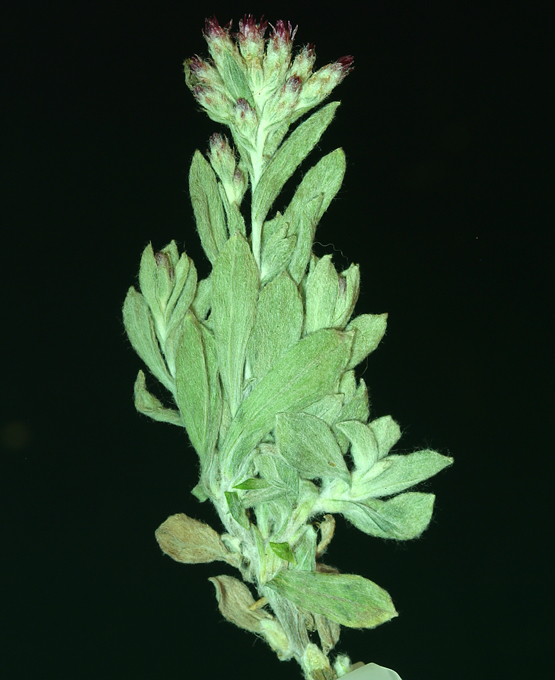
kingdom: Plantae
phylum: Tracheophyta
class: Magnoliopsida
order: Asterales
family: Asteraceae
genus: Antennaria
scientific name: Antennaria geyeri
